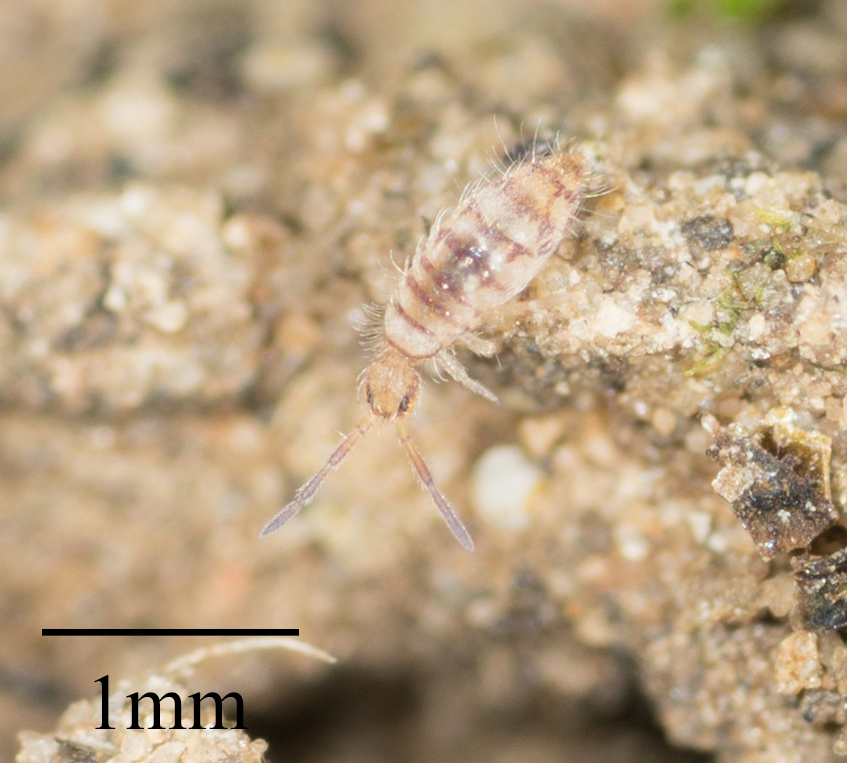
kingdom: Animalia
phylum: Arthropoda
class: Collembola
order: Entomobryomorpha
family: Entomobryidae
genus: Entomobrya
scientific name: Entomobrya atrocincta
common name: Springtail
